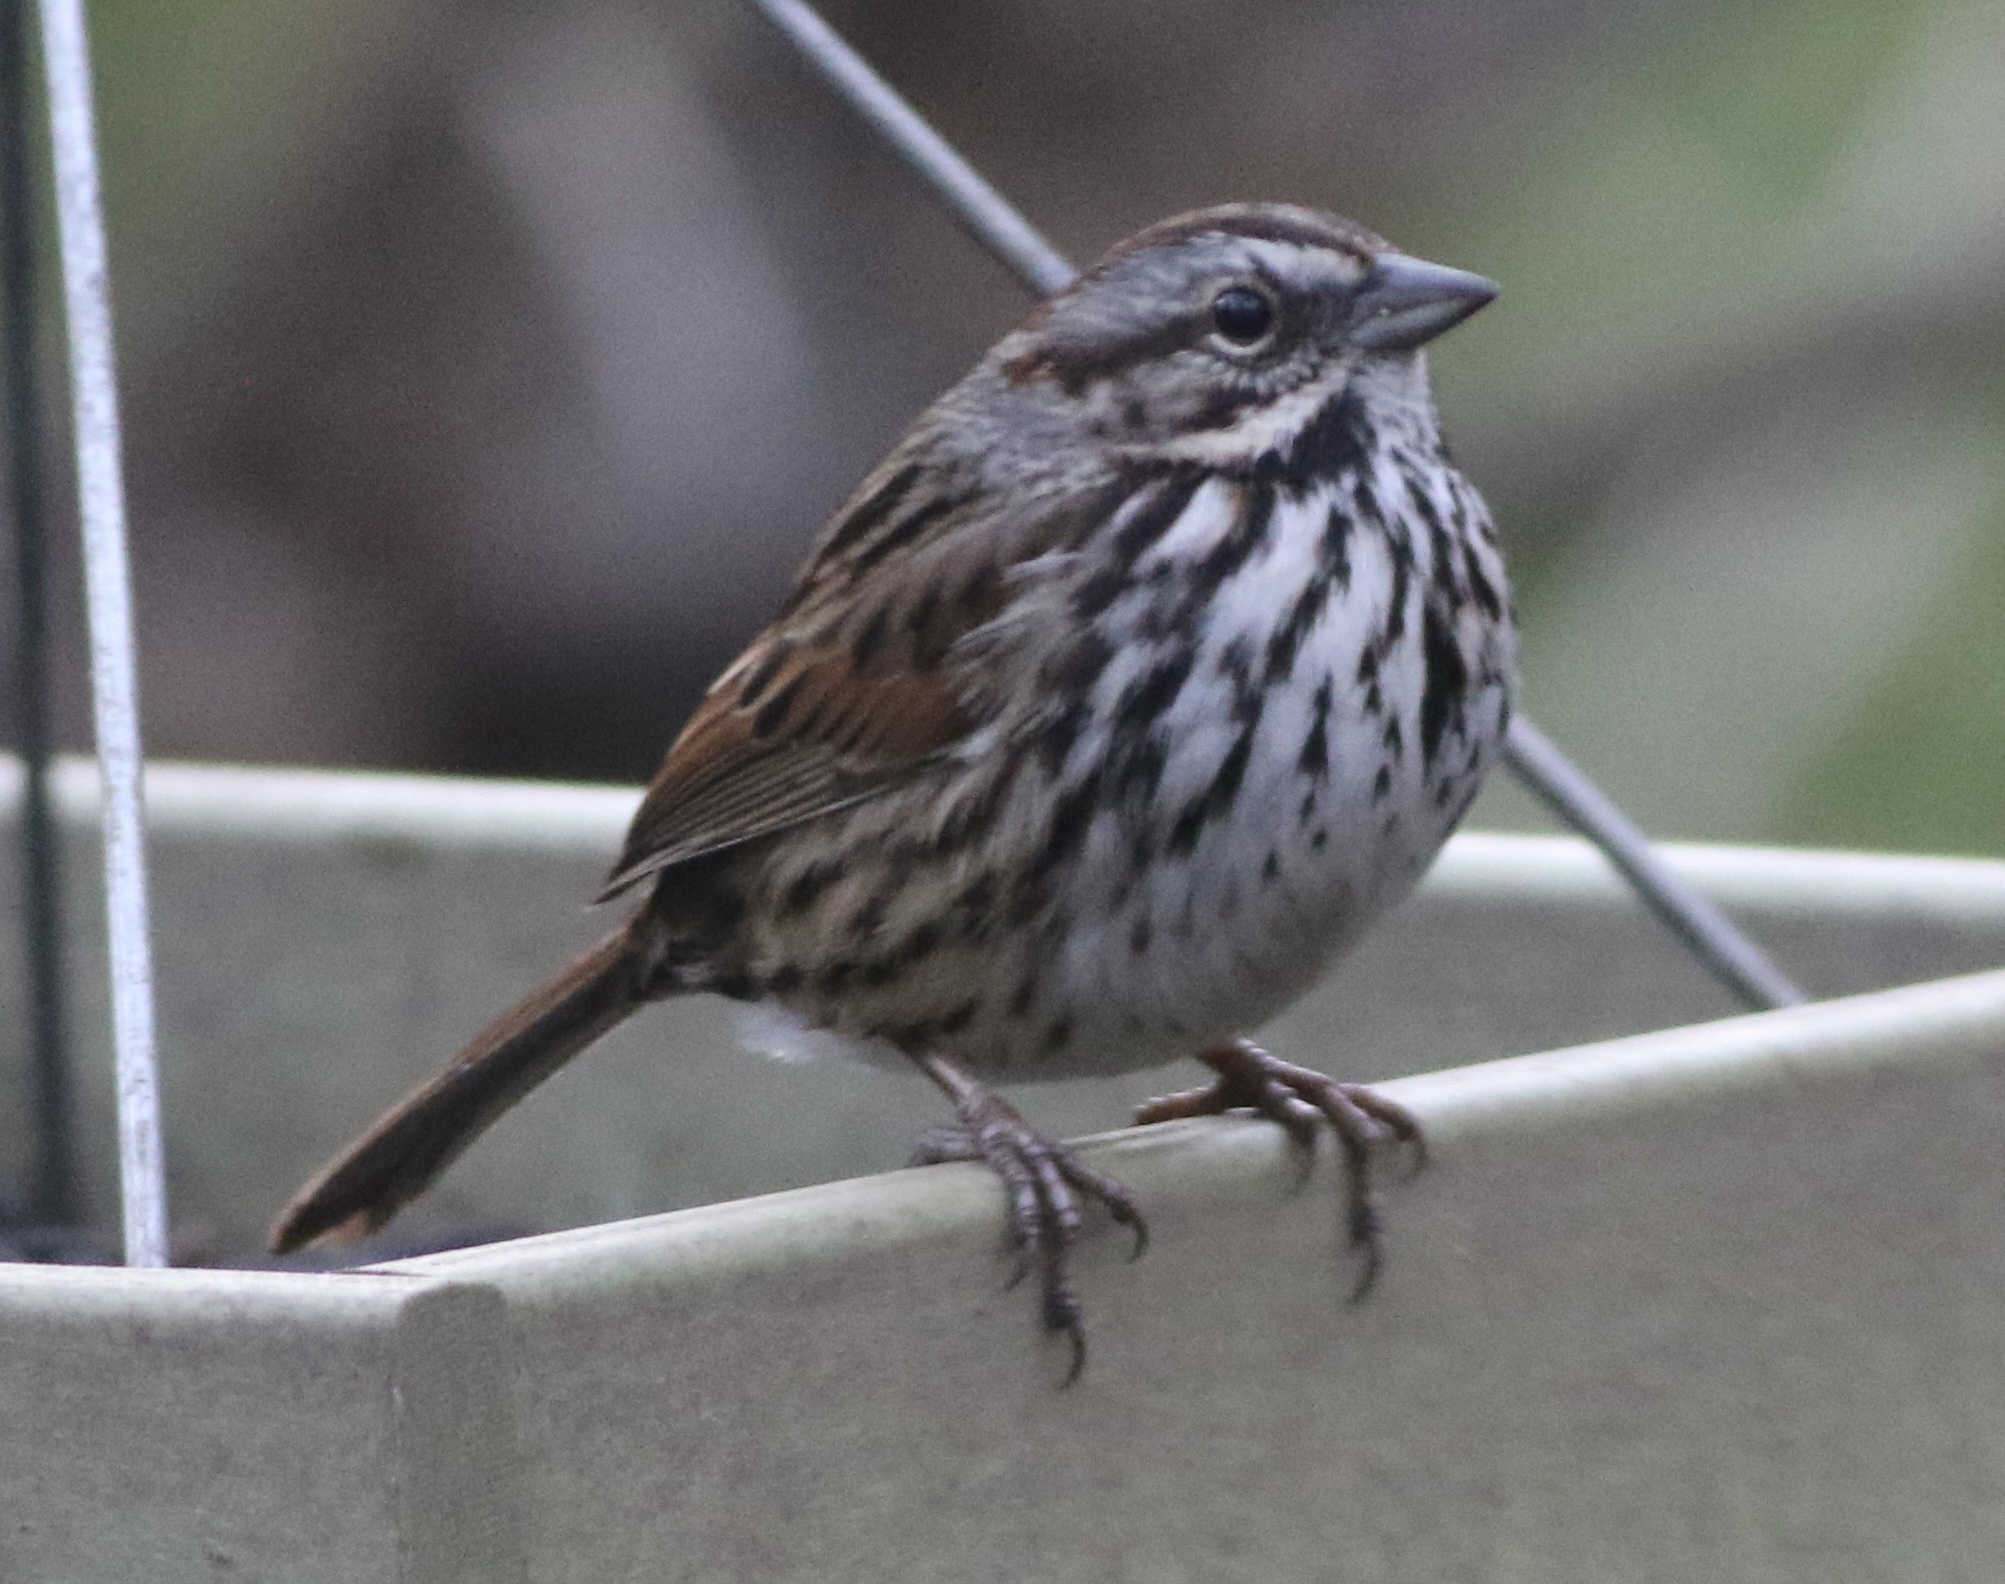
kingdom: Animalia
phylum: Chordata
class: Aves
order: Passeriformes
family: Passerellidae
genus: Melospiza
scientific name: Melospiza melodia
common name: Song sparrow
